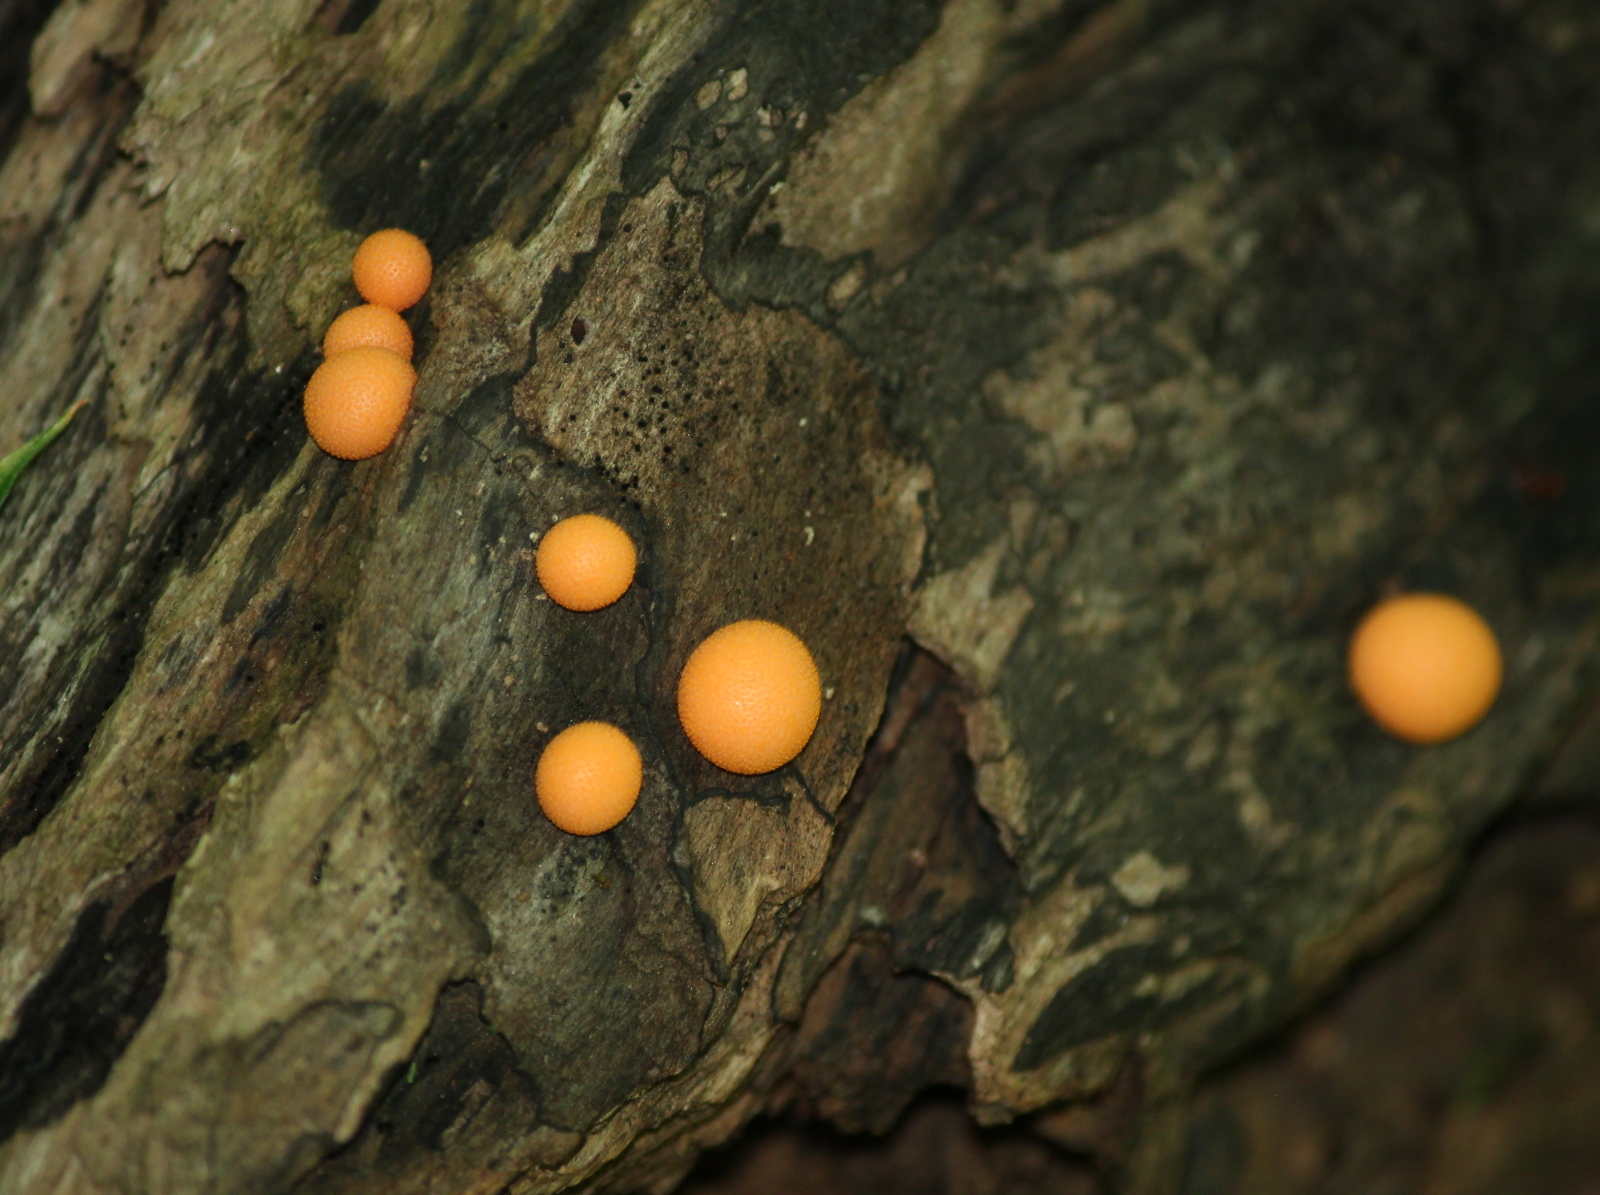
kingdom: Protozoa
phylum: Mycetozoa
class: Myxomycetes
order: Cribrariales
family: Tubiferaceae
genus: Lycogala
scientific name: Lycogala epidendrum
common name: Wolf's milk
